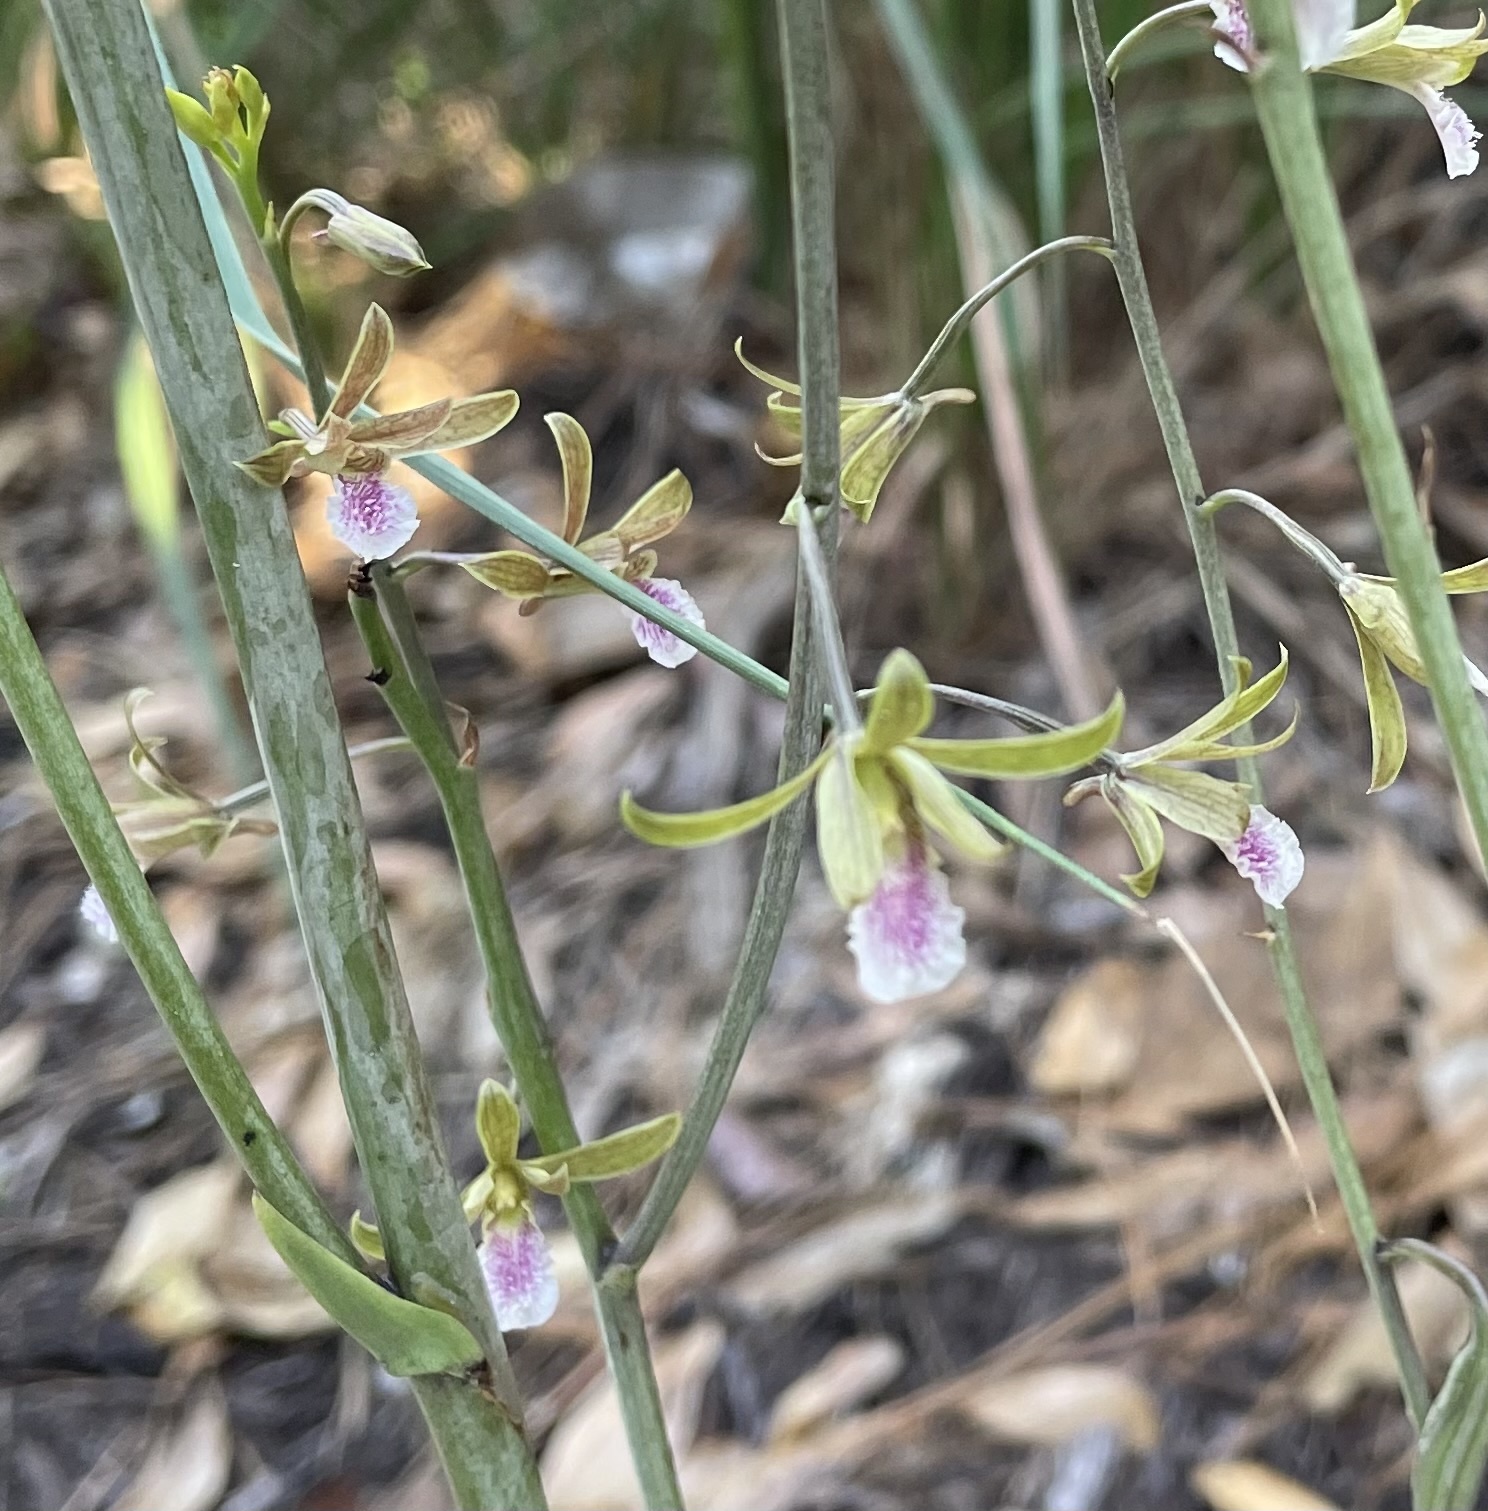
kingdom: Plantae
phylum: Tracheophyta
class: Liliopsida
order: Asparagales
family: Orchidaceae
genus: Eulophia
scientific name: Eulophia graminea
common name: Orchid
